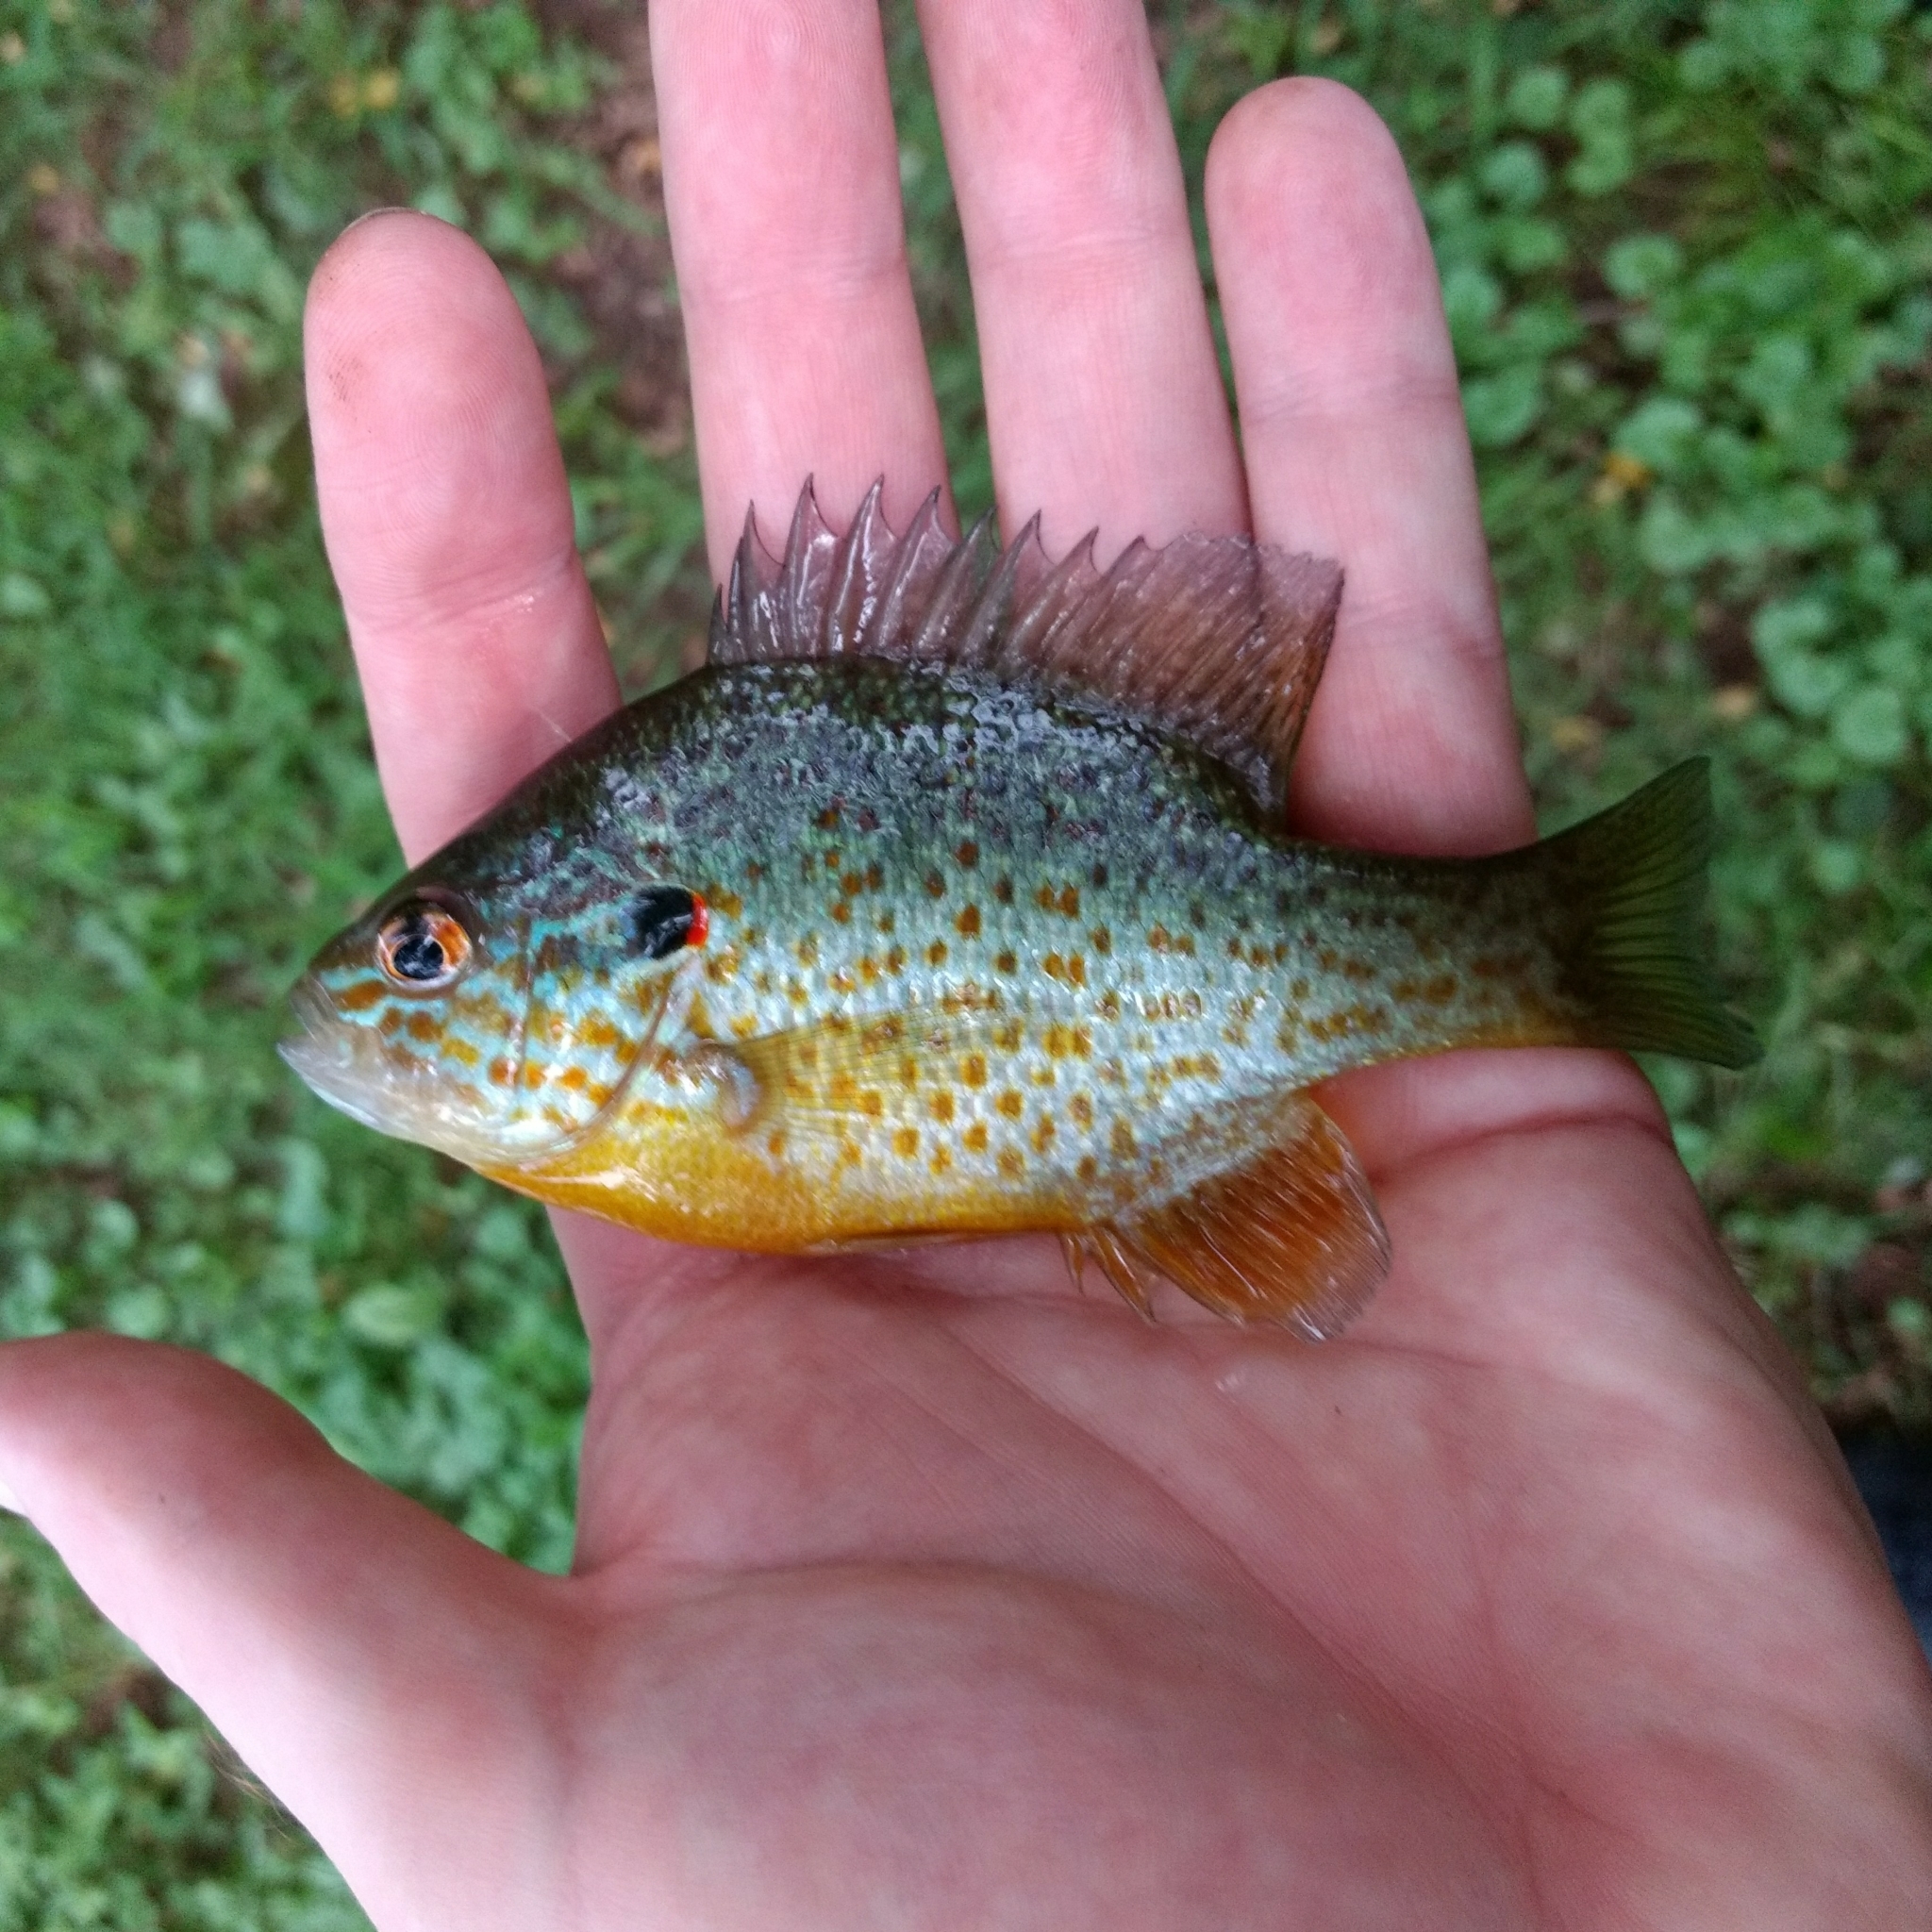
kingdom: Animalia
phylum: Chordata
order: Perciformes
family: Centrarchidae
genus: Lepomis
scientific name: Lepomis gibbosus
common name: Pumpkinseed
